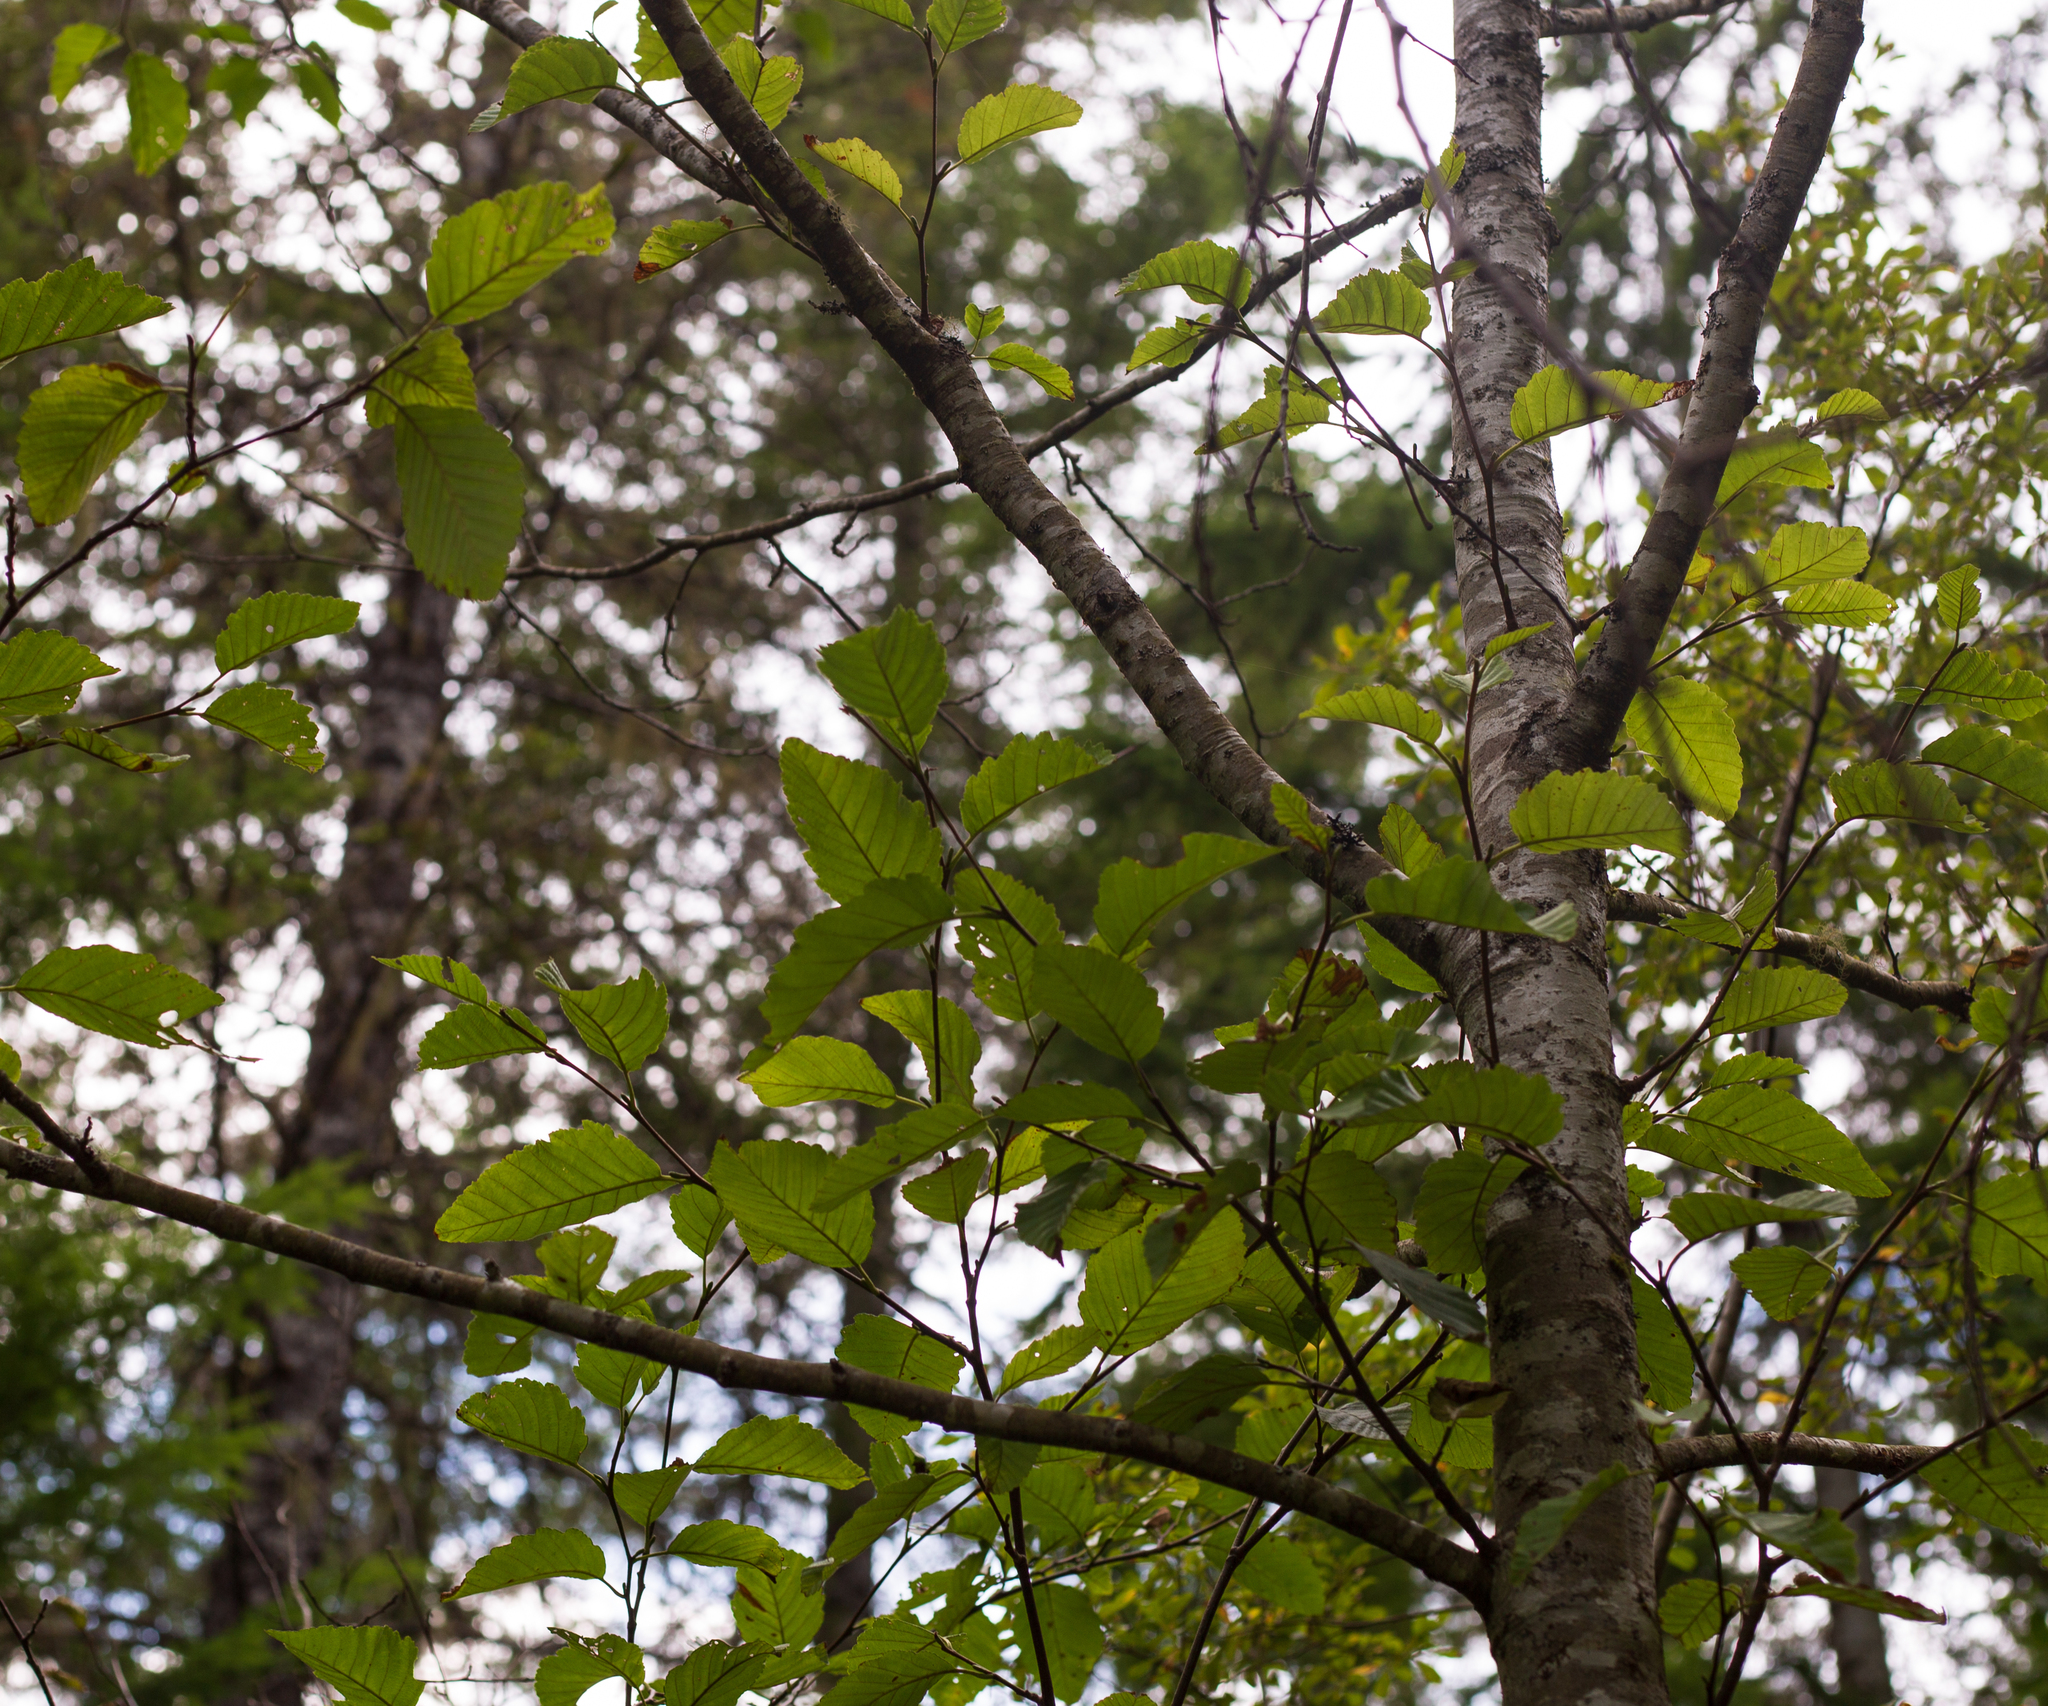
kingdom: Plantae
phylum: Tracheophyta
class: Magnoliopsida
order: Fagales
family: Betulaceae
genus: Alnus
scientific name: Alnus rubra
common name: Red alder
